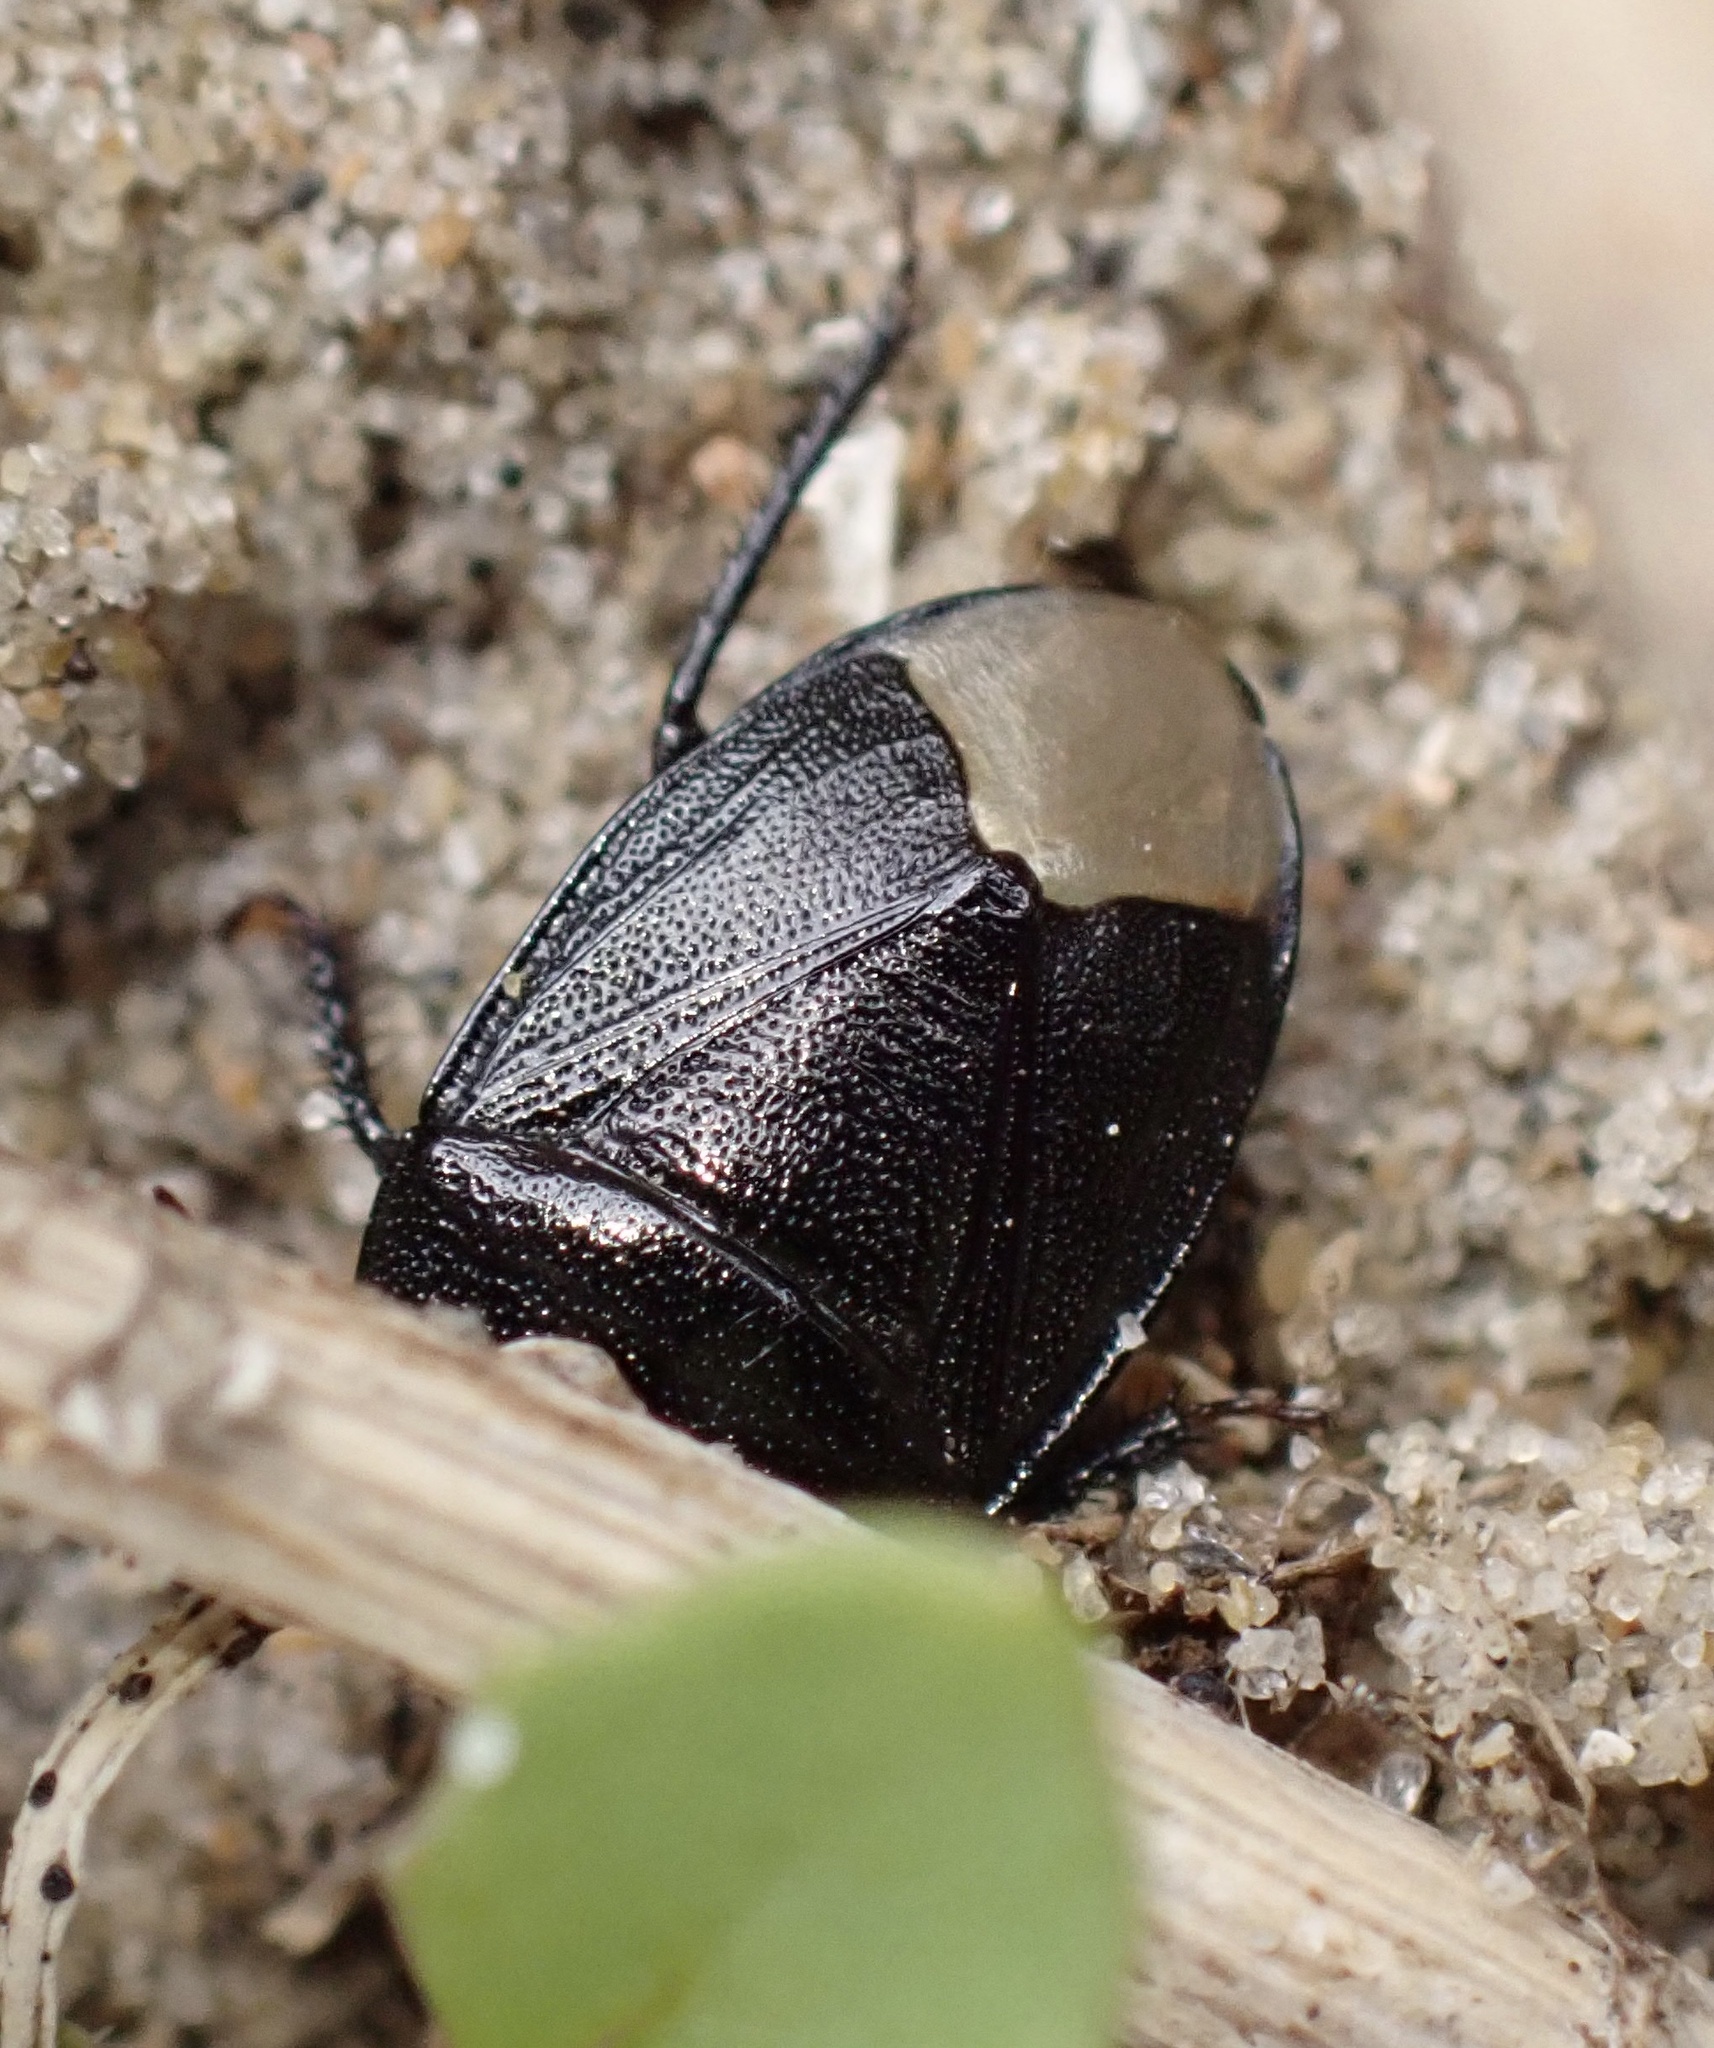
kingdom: Animalia
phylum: Arthropoda
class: Insecta
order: Hemiptera
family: Cydnidae
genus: Sehirus
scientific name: Sehirus luctuosus
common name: Forget-me-not shieldbug
